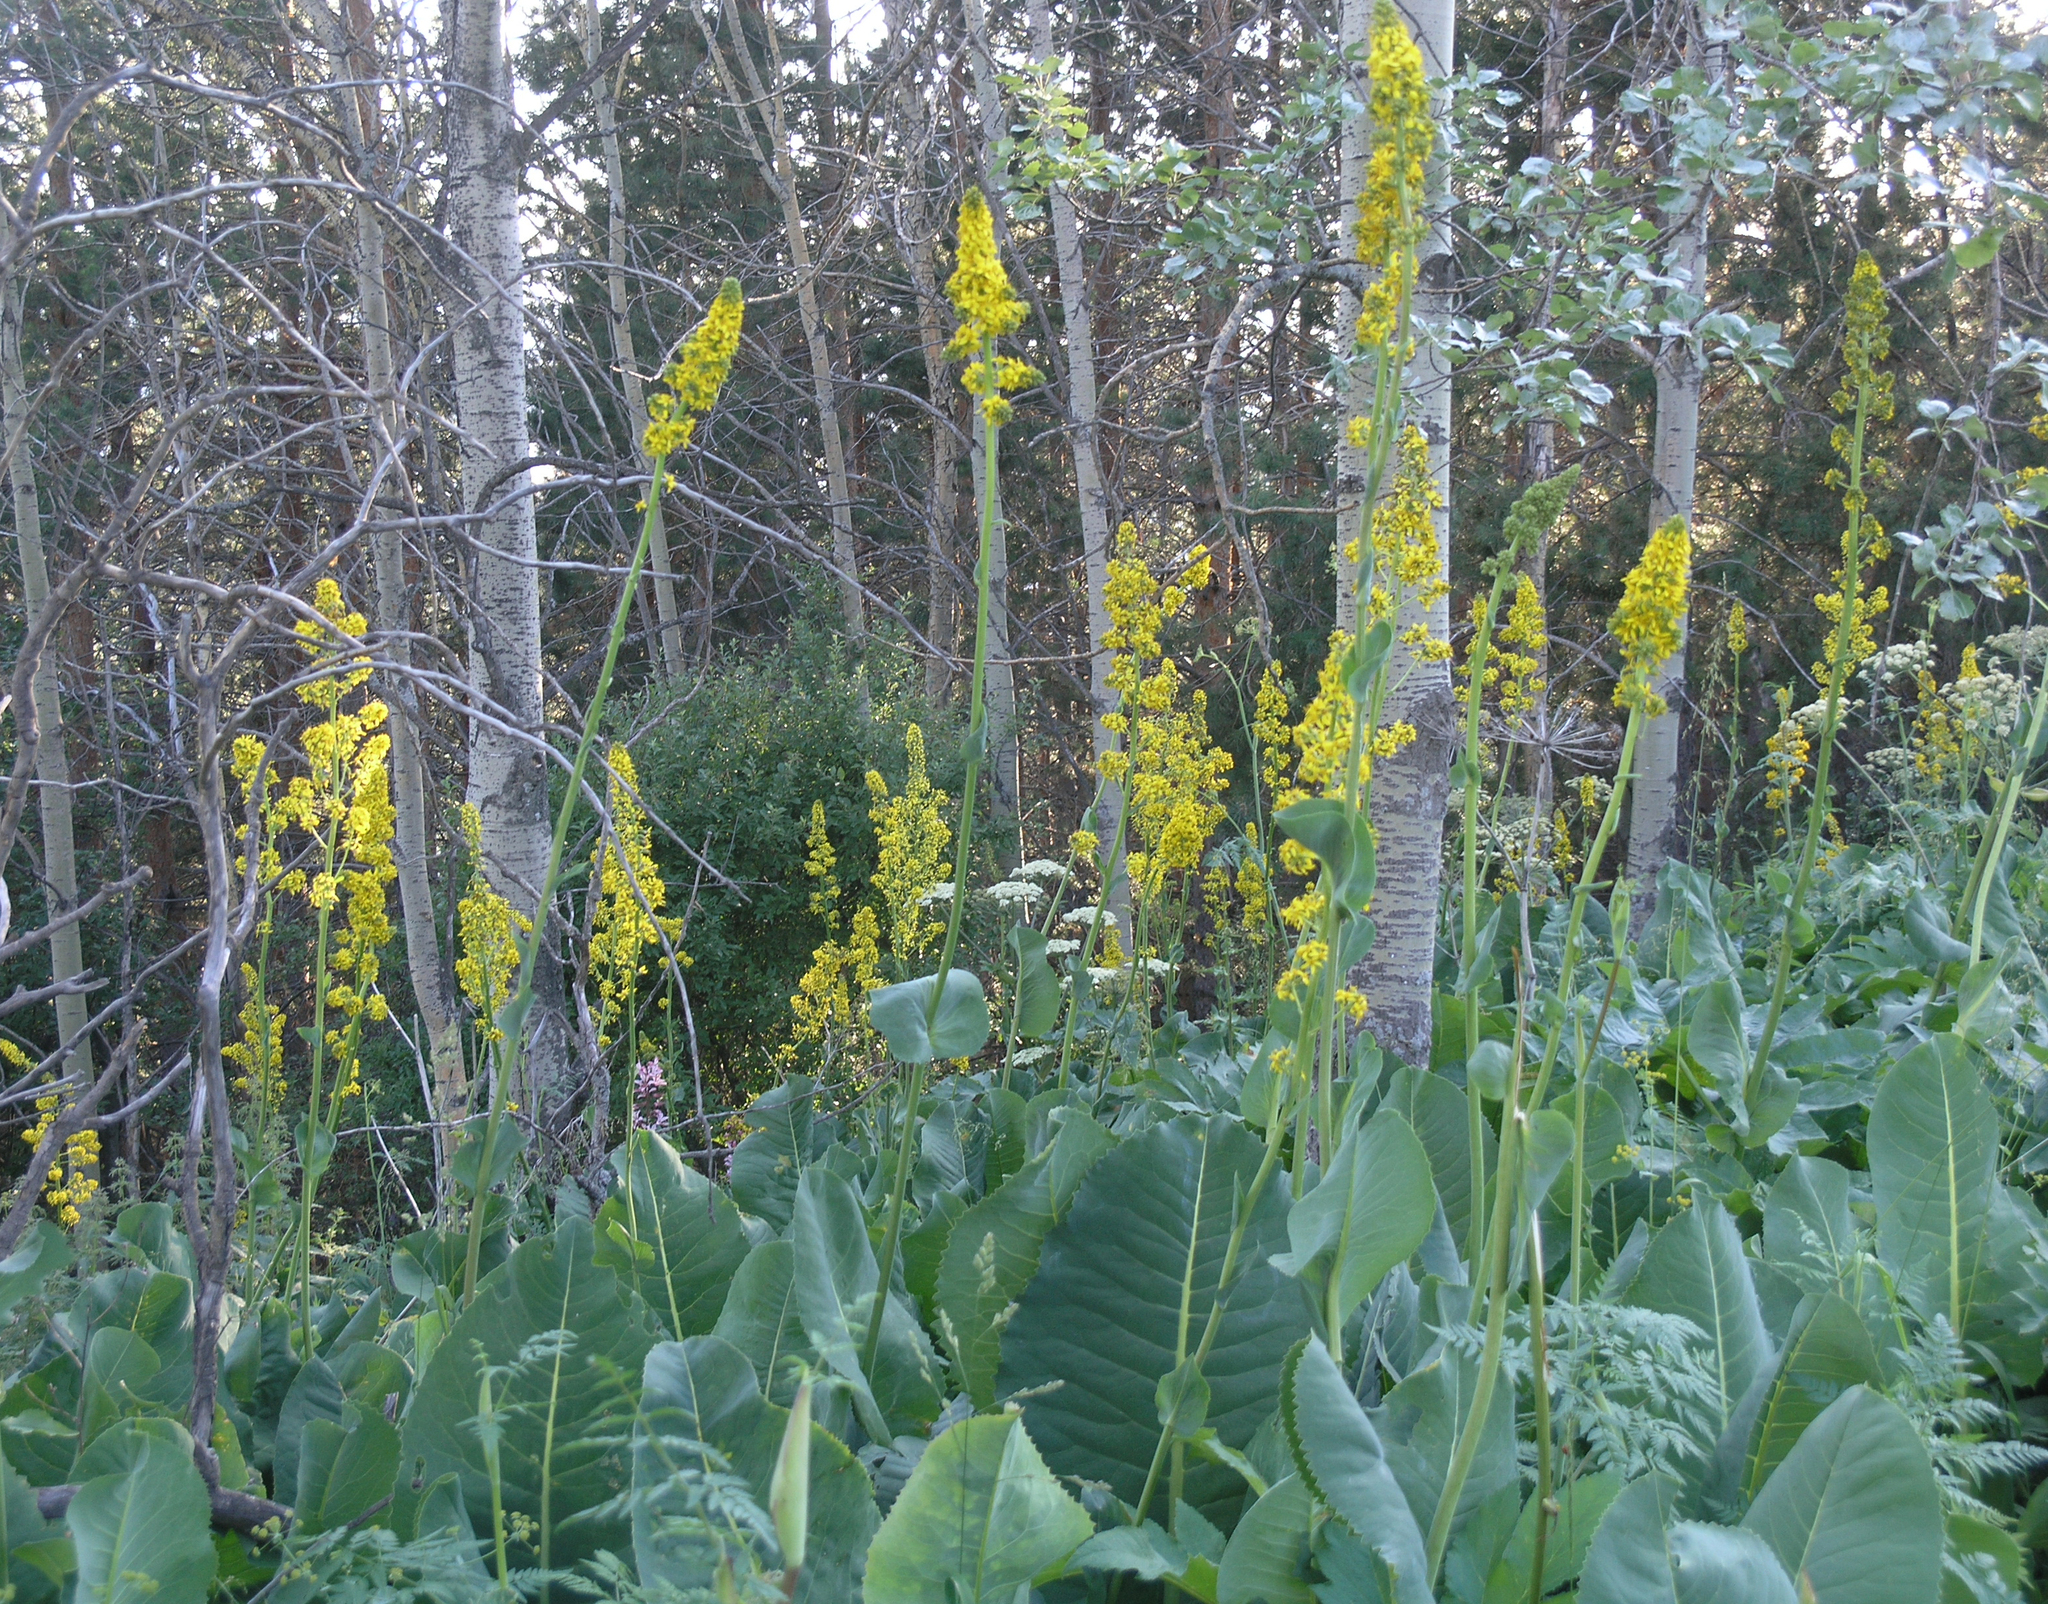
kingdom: Plantae
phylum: Tracheophyta
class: Magnoliopsida
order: Asterales
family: Asteraceae
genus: Ligularia
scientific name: Ligularia heterophylla
